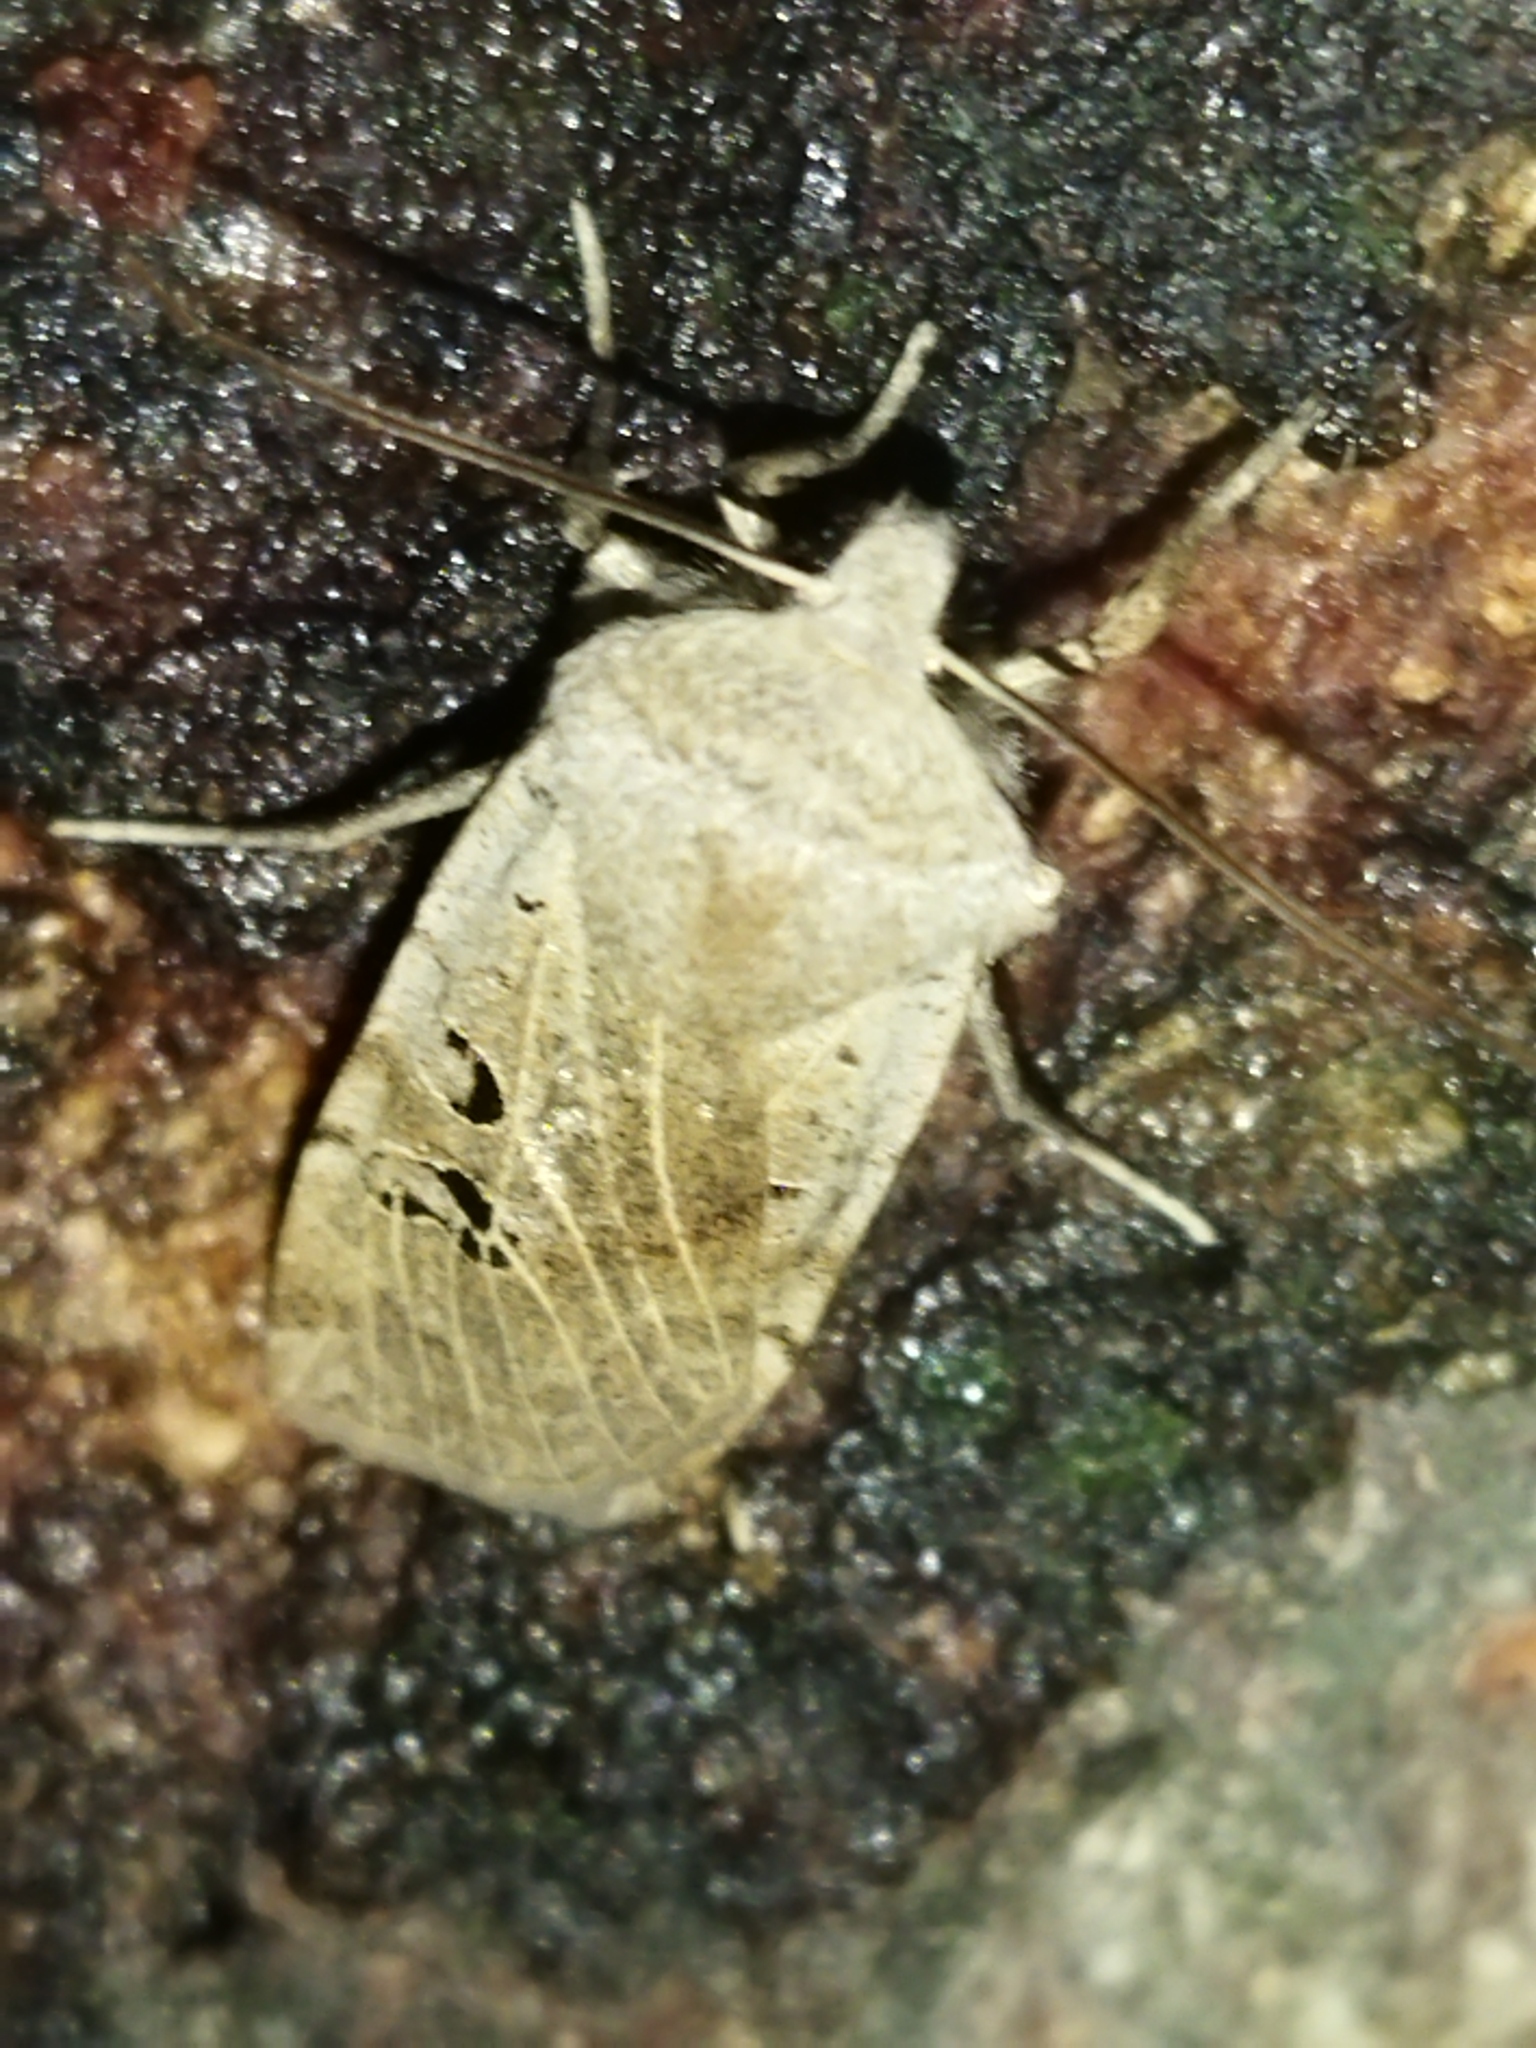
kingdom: Animalia
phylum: Arthropoda
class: Insecta
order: Lepidoptera
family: Noctuidae
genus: Conistra
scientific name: Conistra rubiginosa
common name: Black-spotted chestnut
